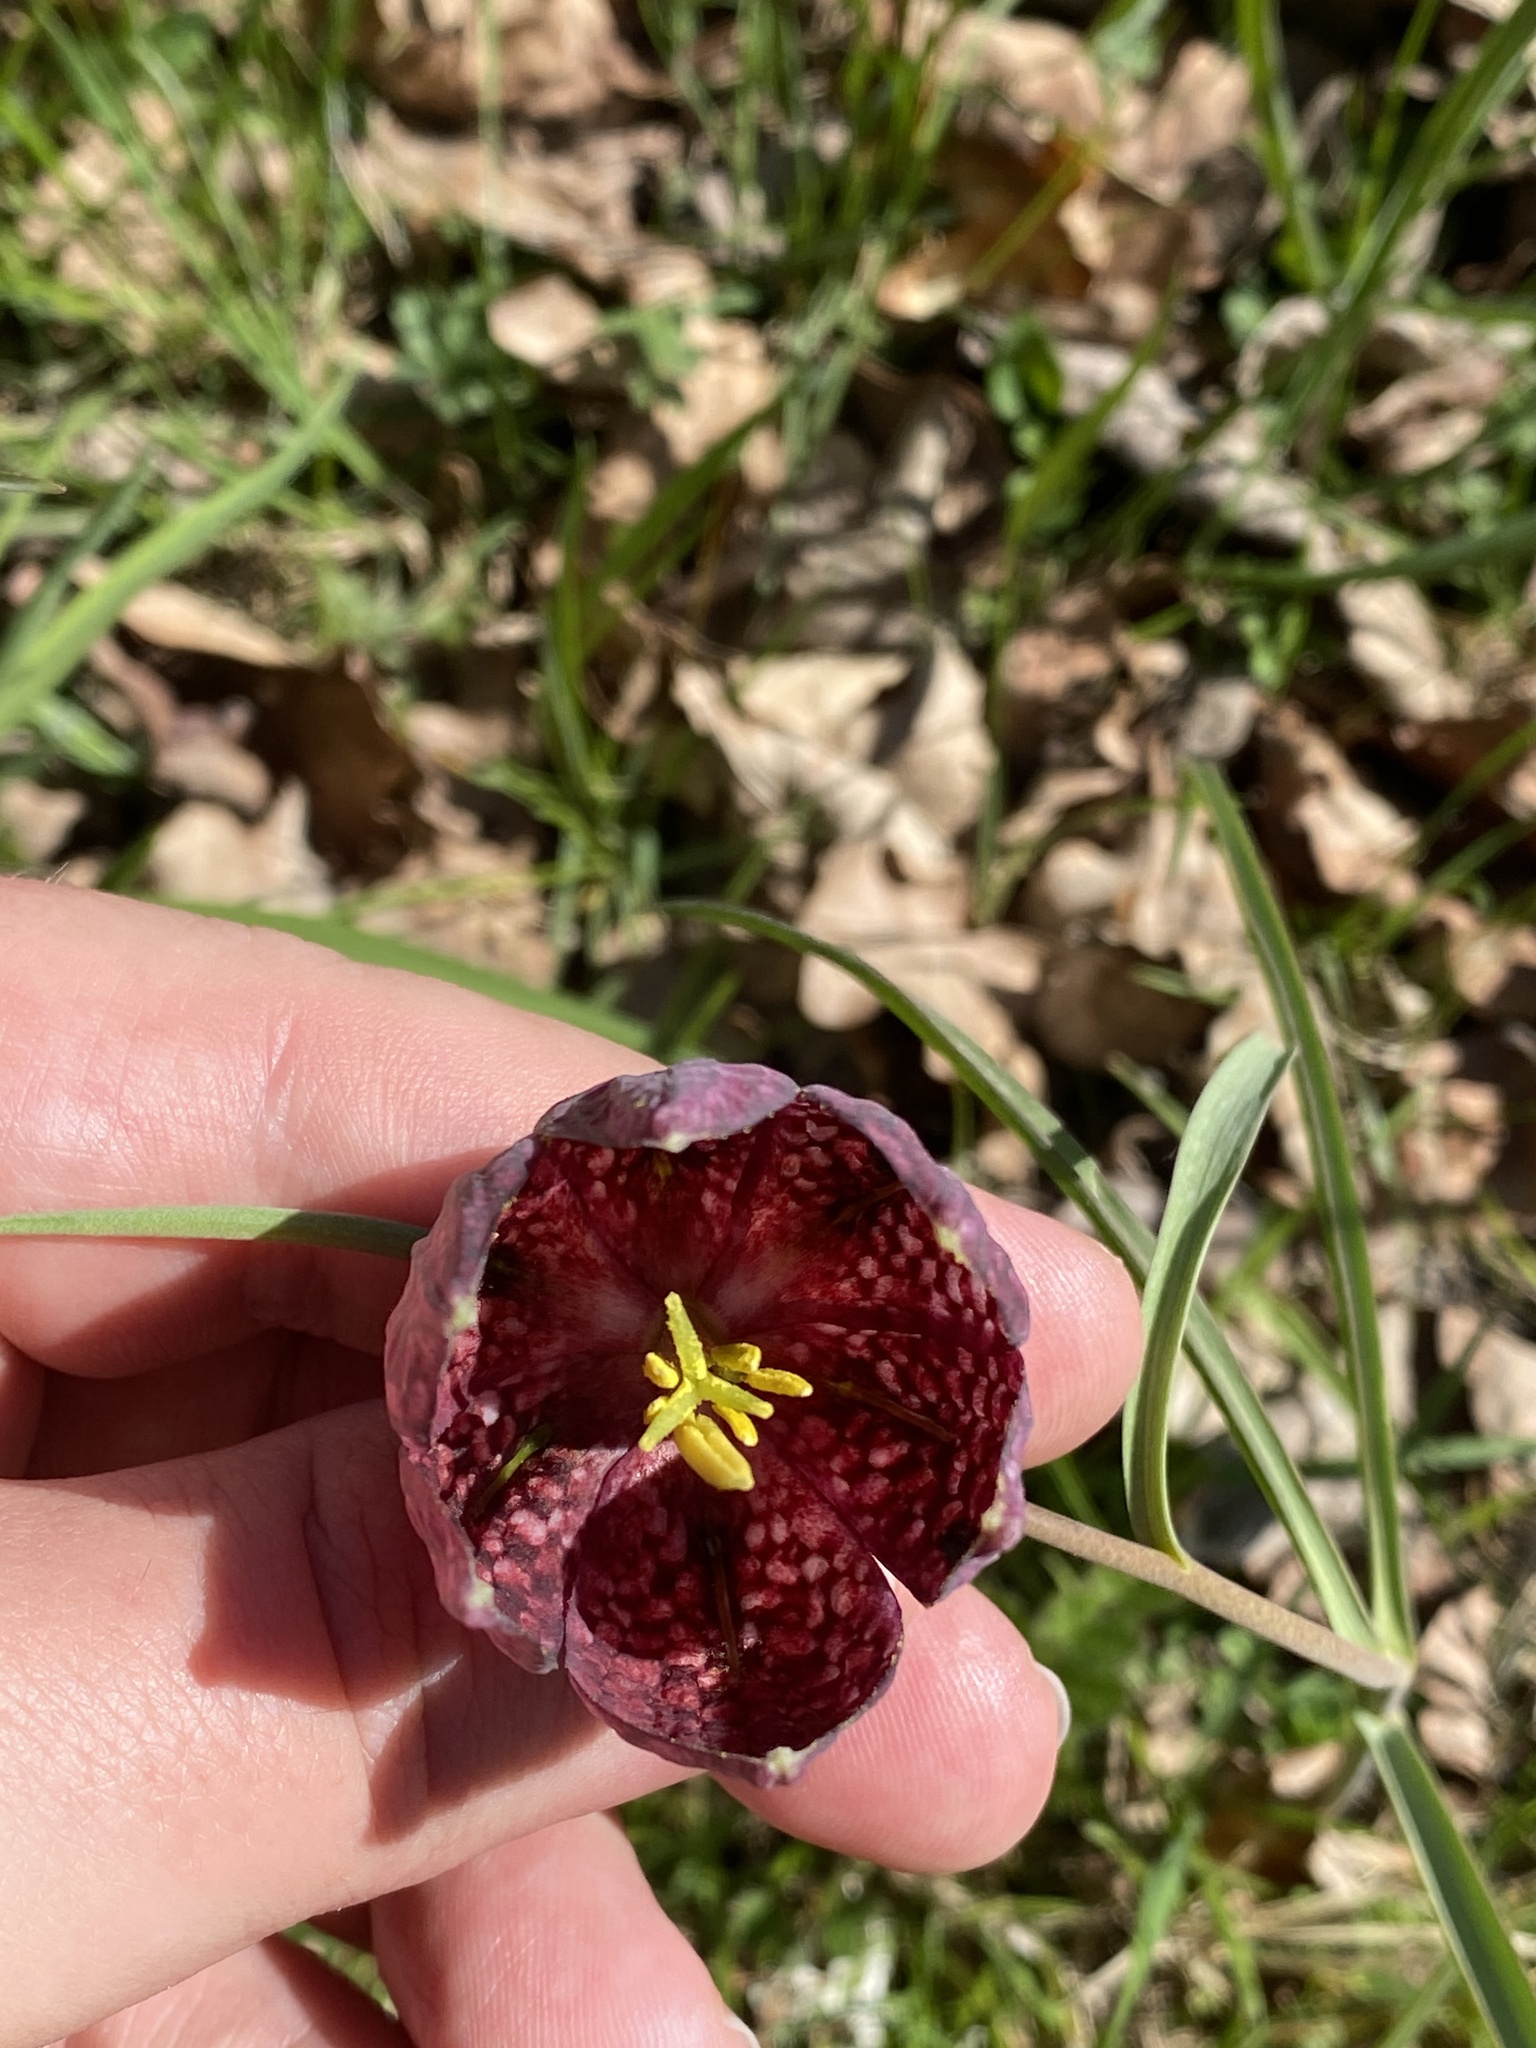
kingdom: Plantae
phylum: Tracheophyta
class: Liliopsida
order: Liliales
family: Liliaceae
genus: Fritillaria
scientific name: Fritillaria meleagris
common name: Fritillary
